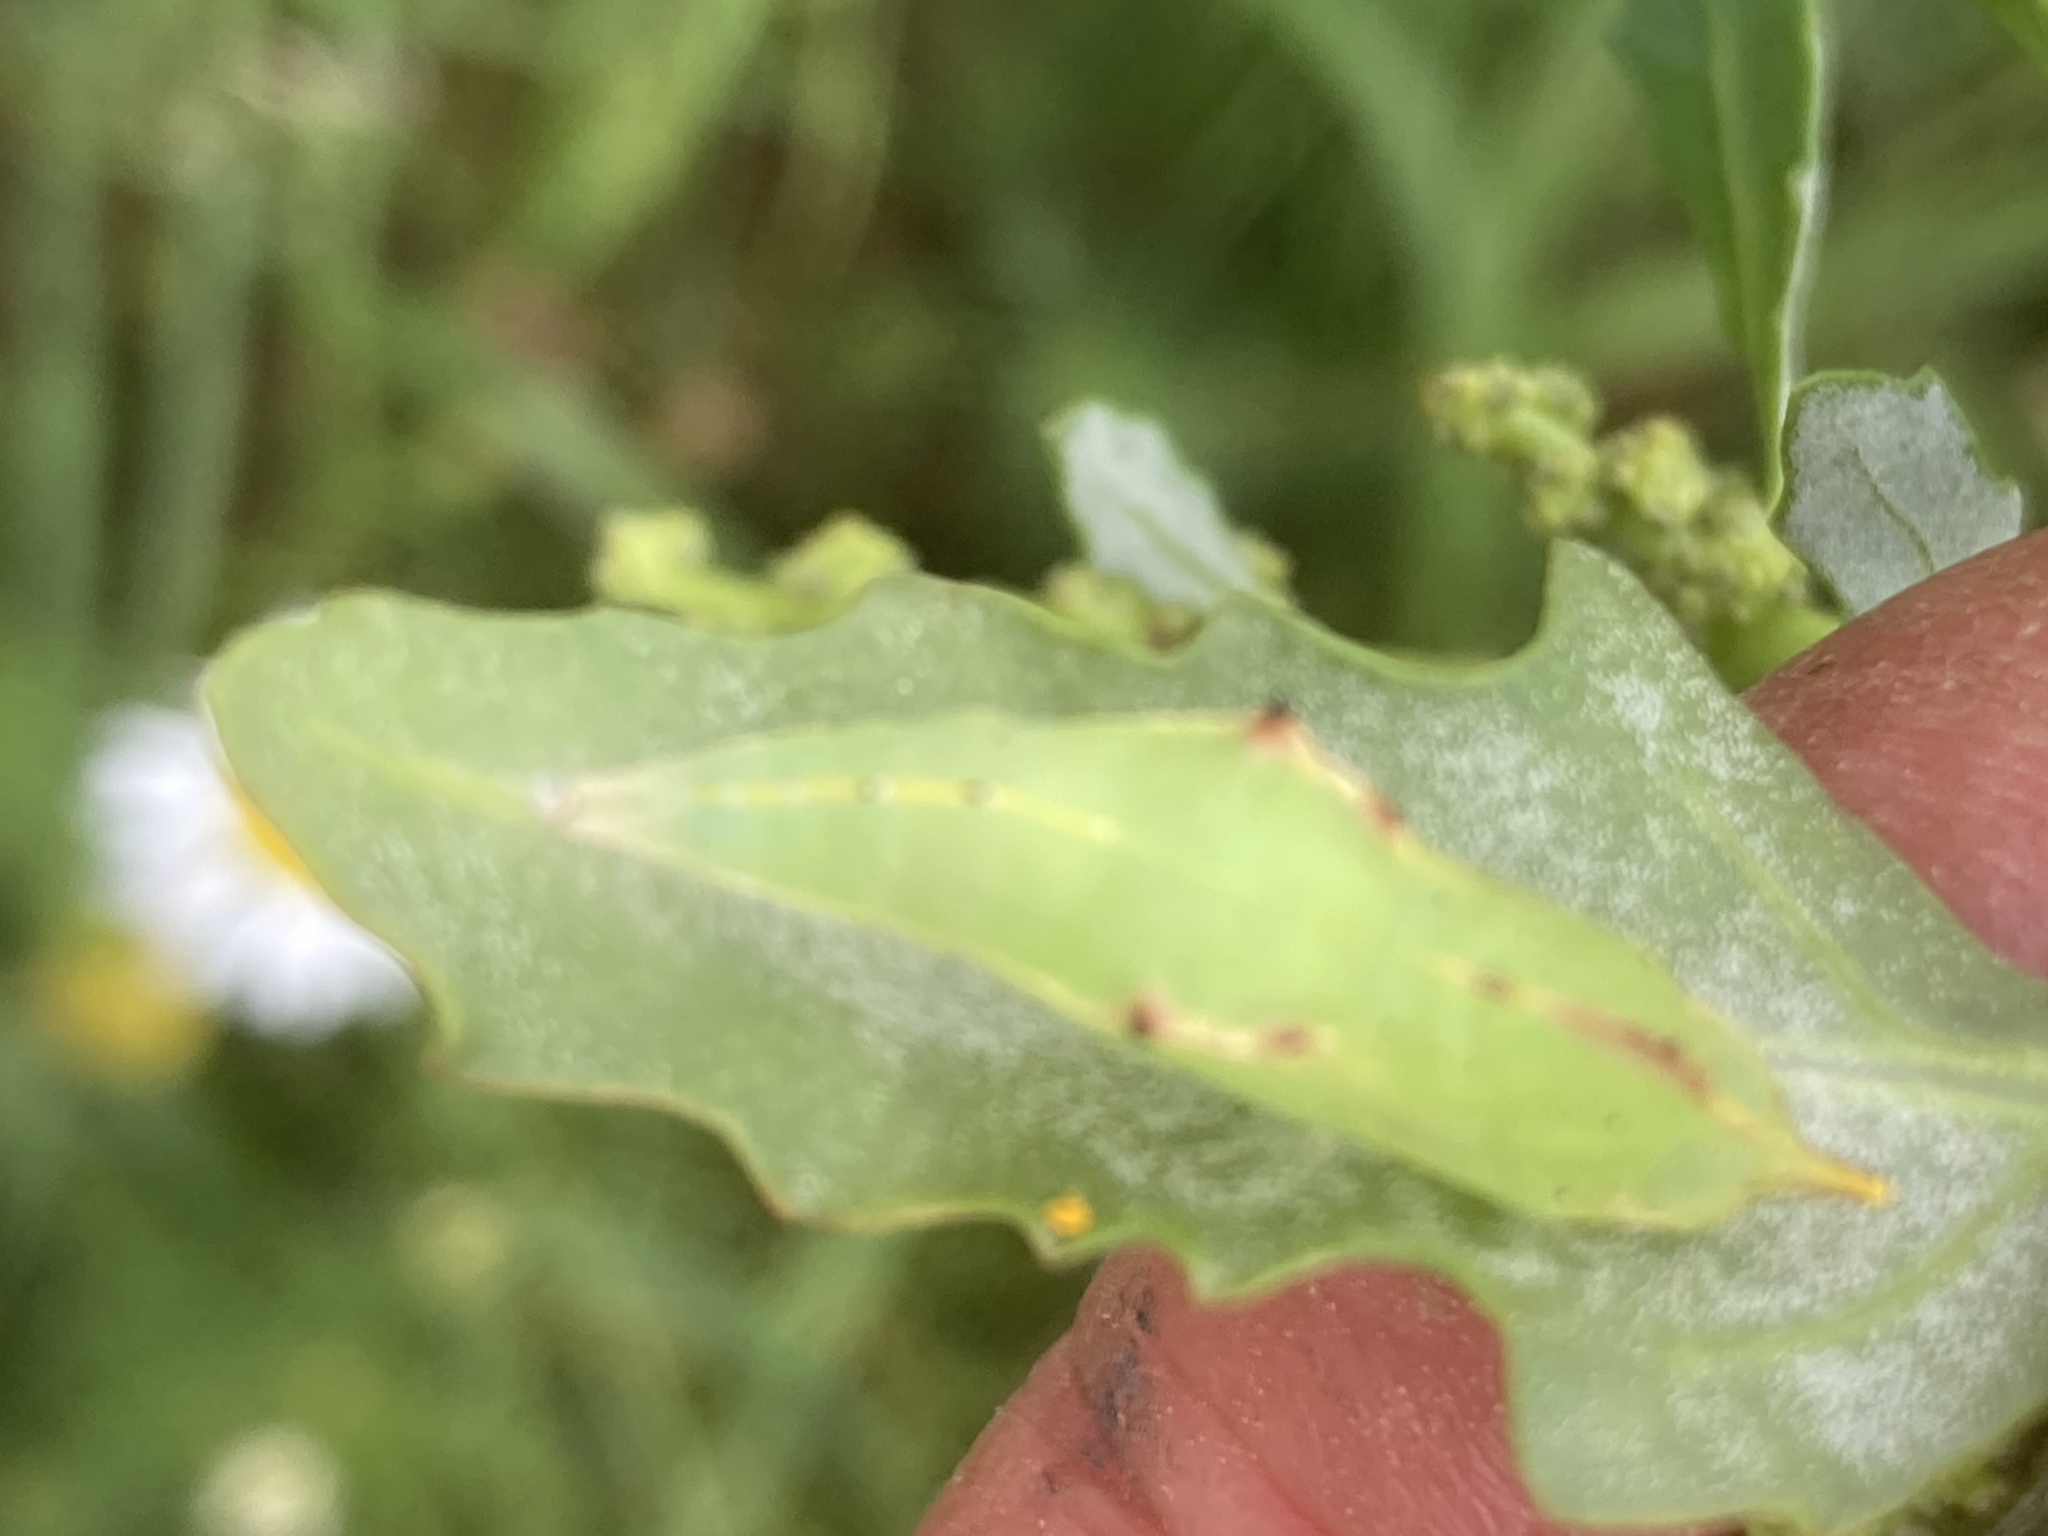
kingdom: Plantae
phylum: Tracheophyta
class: Magnoliopsida
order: Caryophyllales
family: Amaranthaceae
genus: Oxybasis
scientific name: Oxybasis glauca
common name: Glaucous goosefoot
